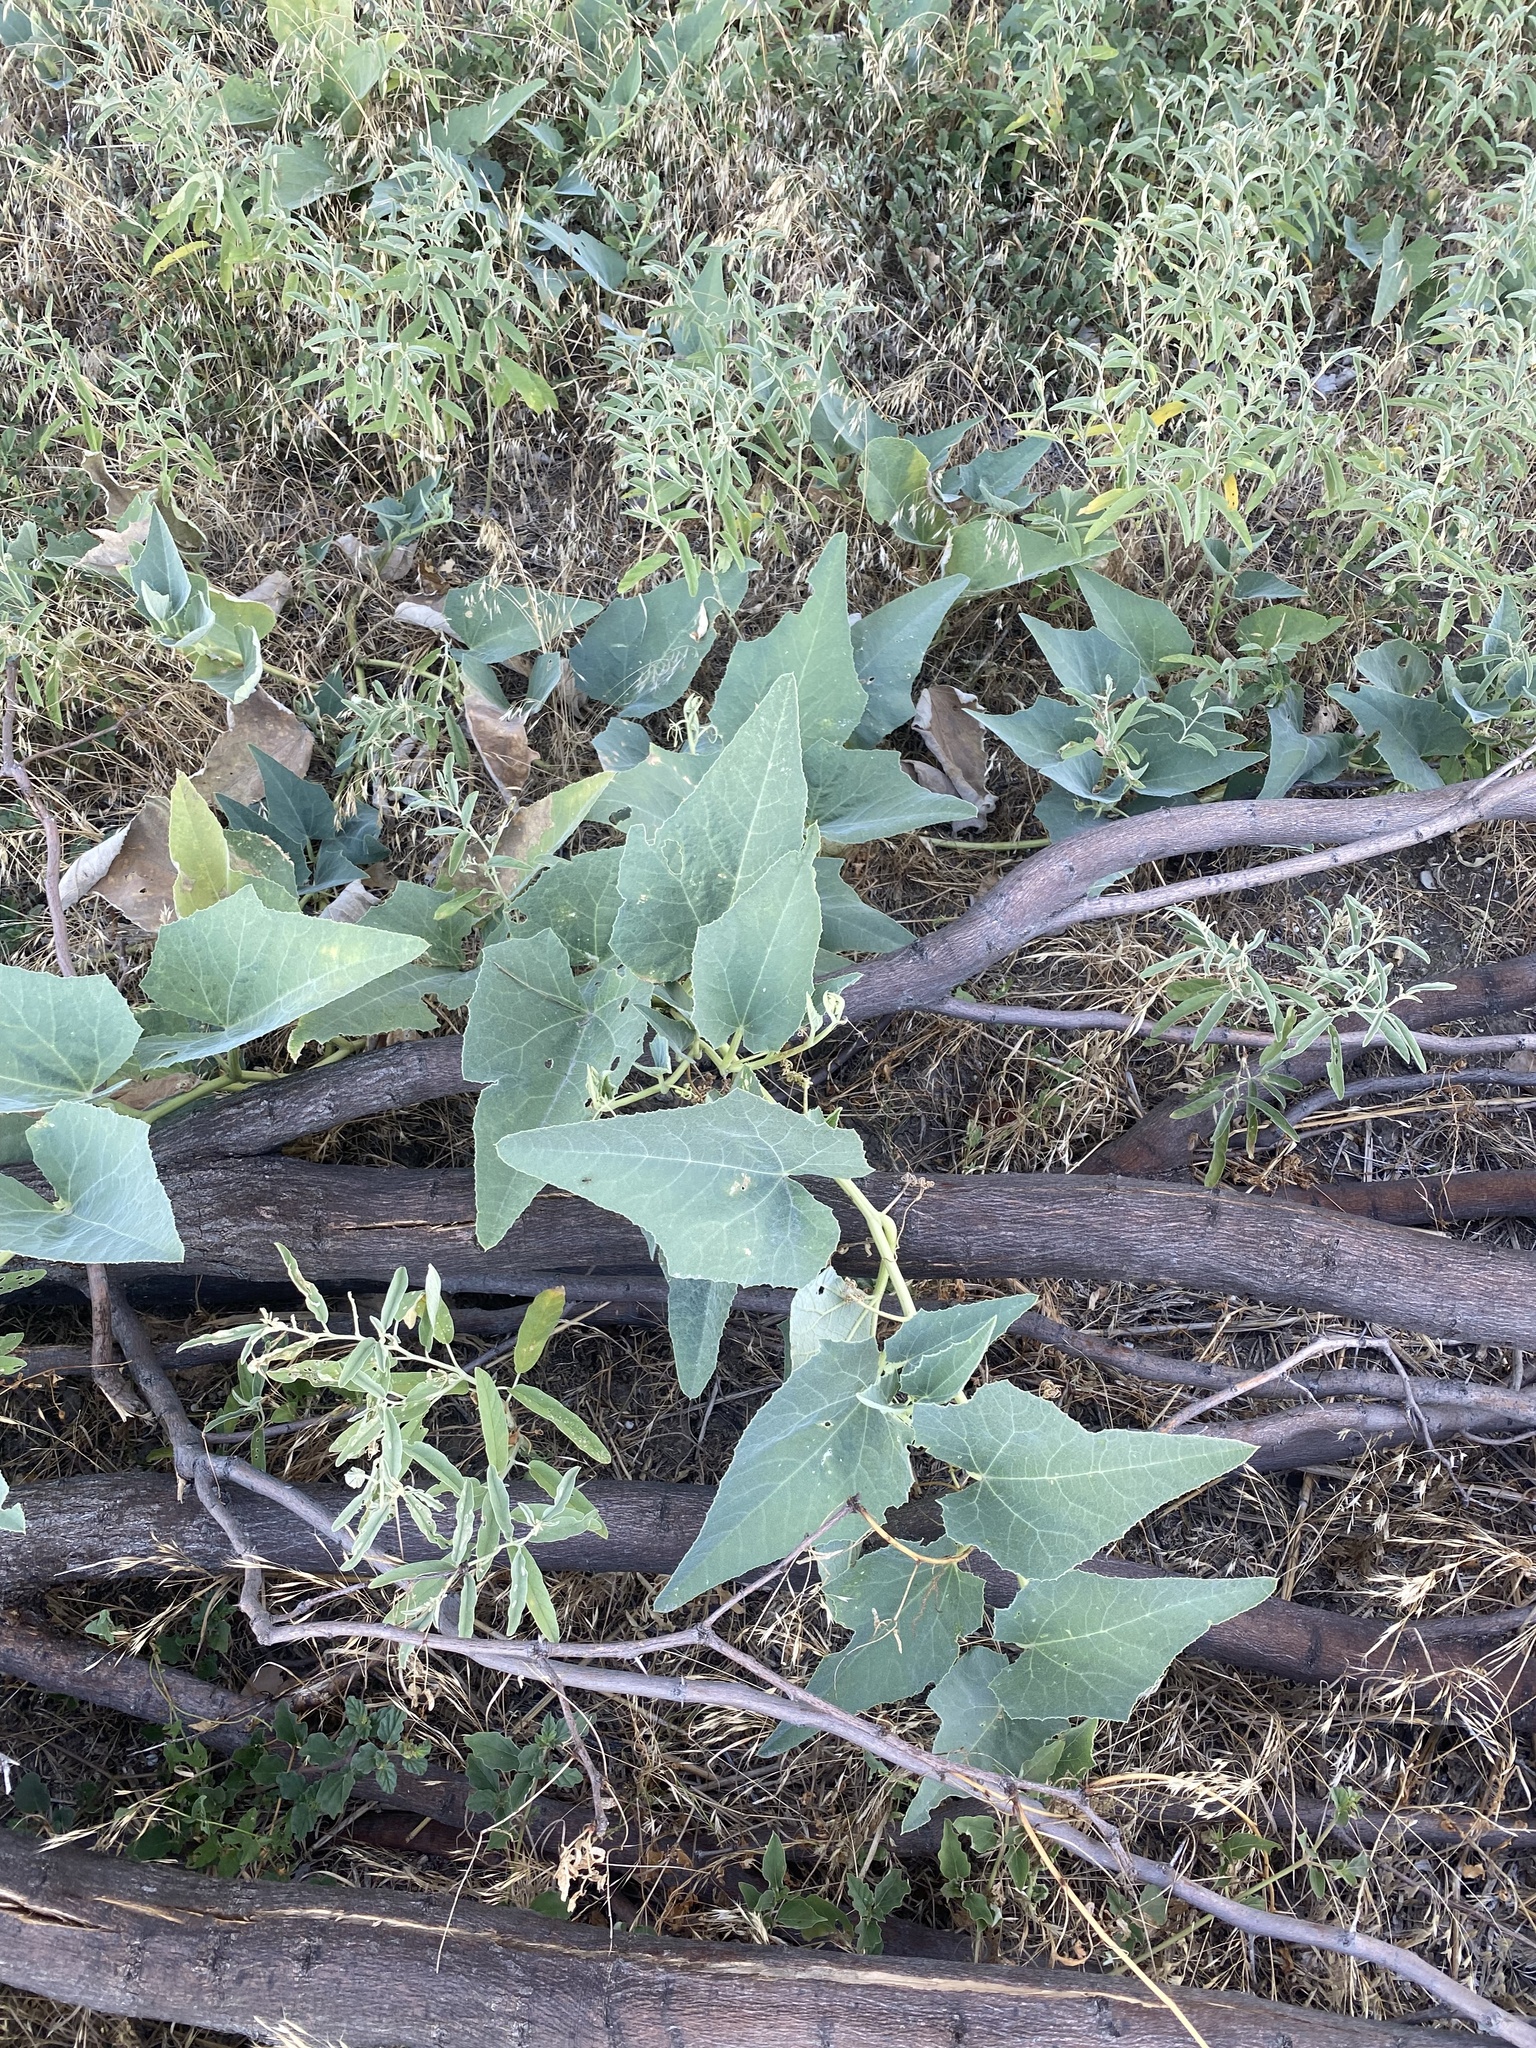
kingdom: Plantae
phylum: Tracheophyta
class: Magnoliopsida
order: Cucurbitales
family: Cucurbitaceae
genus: Cucurbita
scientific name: Cucurbita foetidissima
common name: Buffalo gourd
